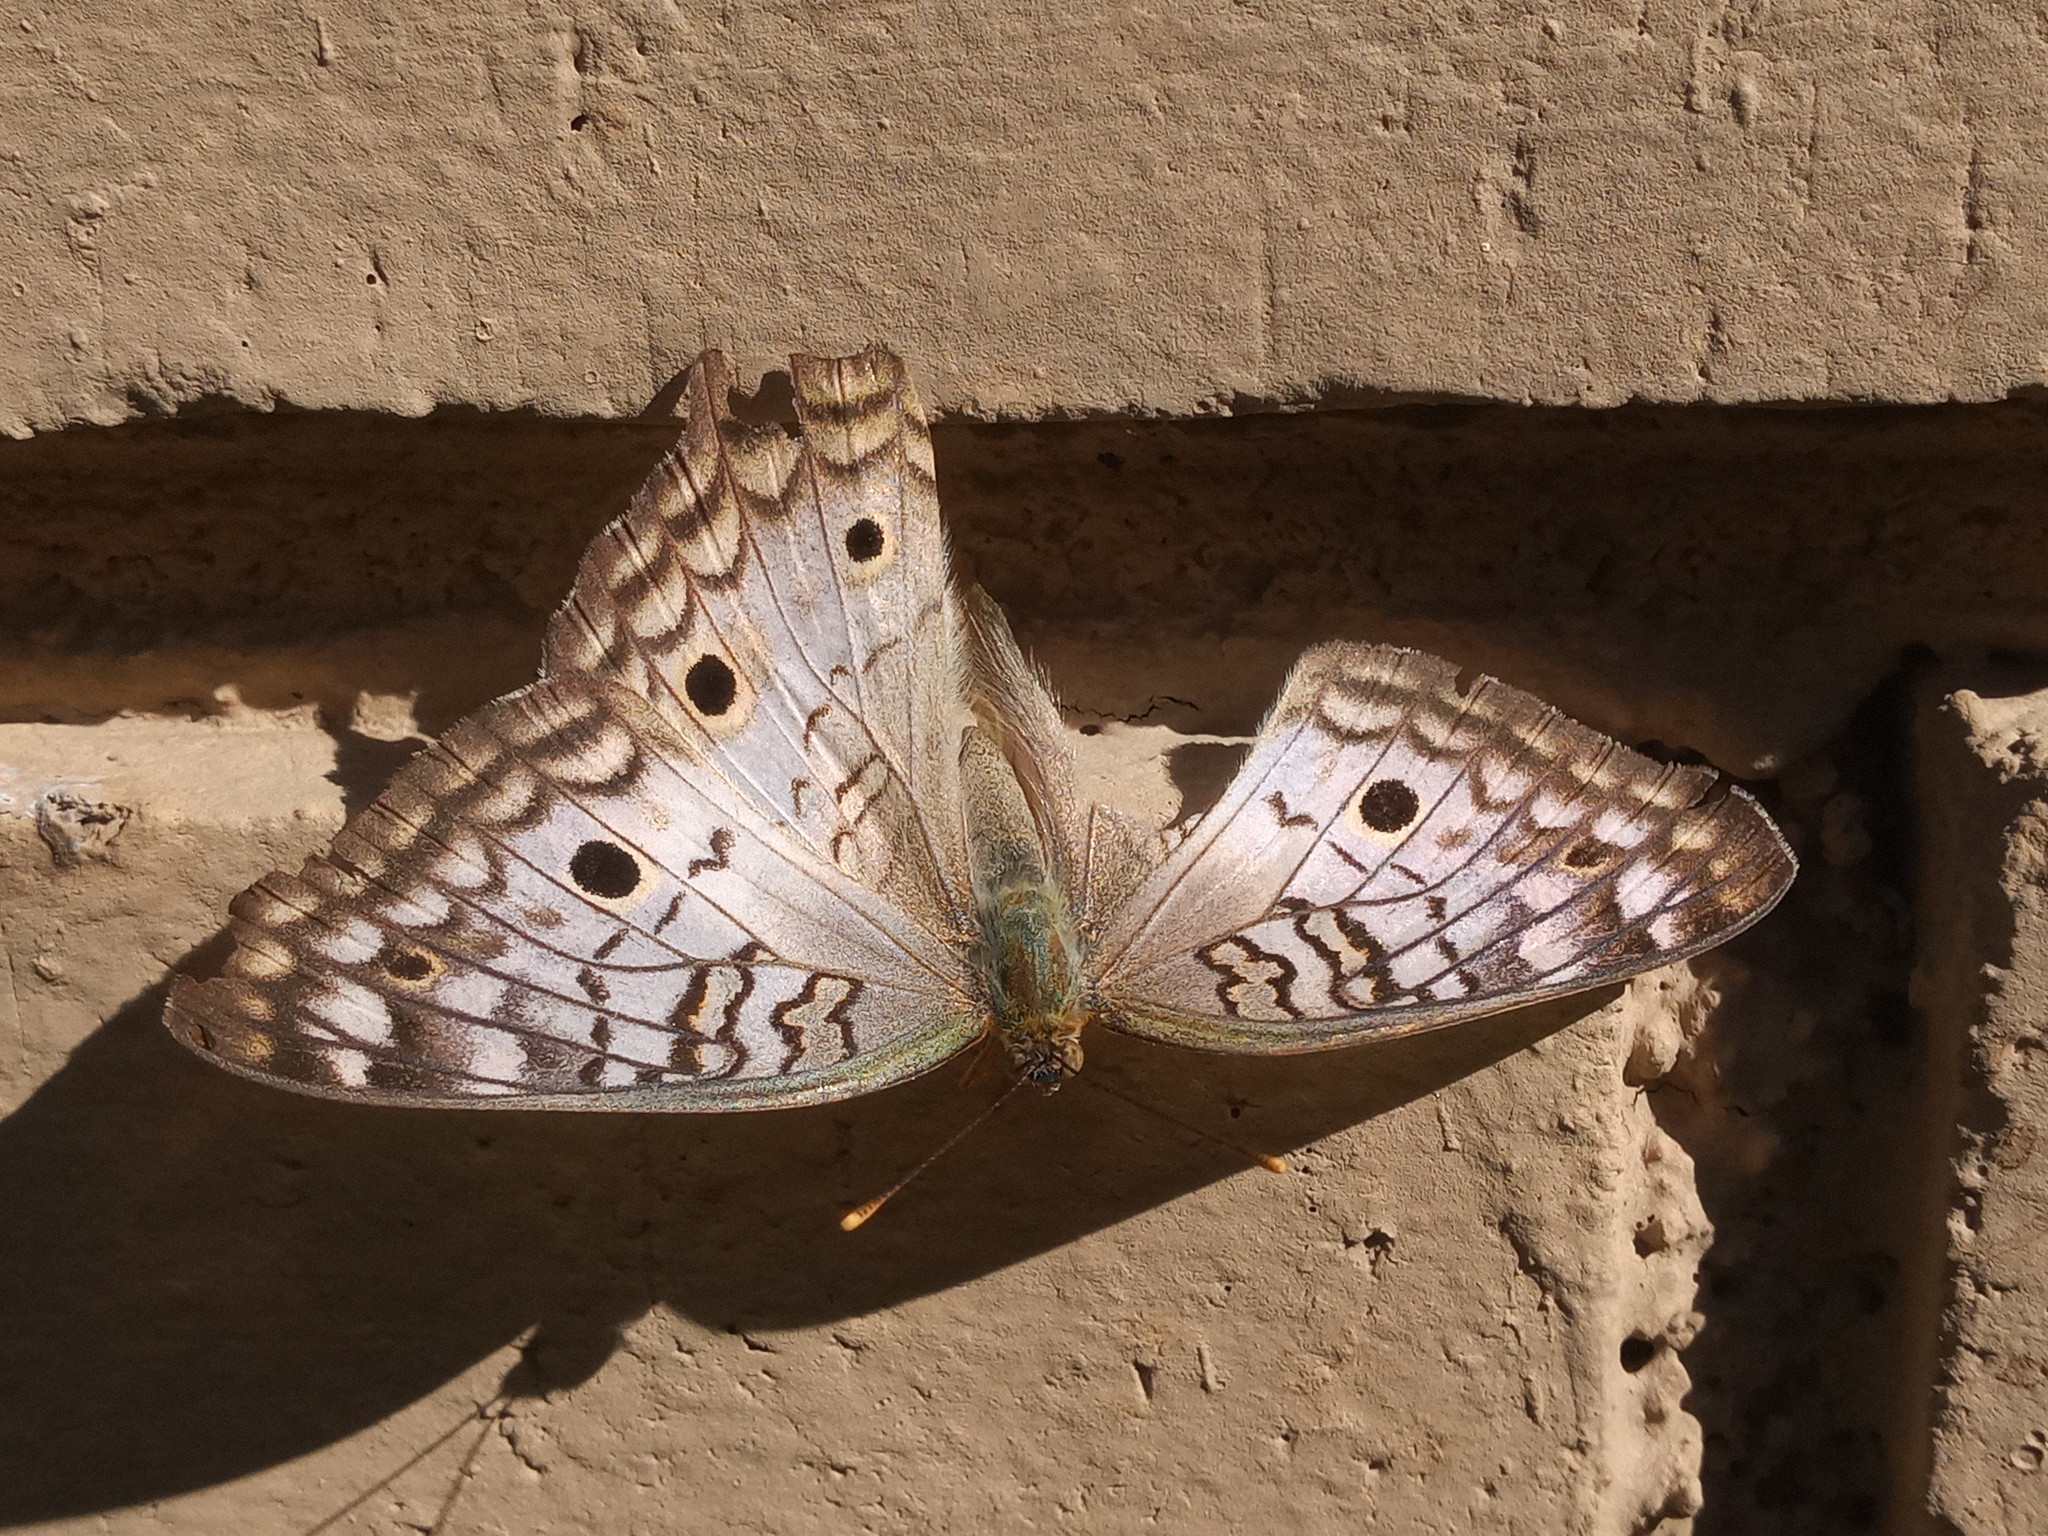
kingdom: Animalia
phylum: Arthropoda
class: Insecta
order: Lepidoptera
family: Nymphalidae
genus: Anartia
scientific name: Anartia jatrophae
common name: White peacock
